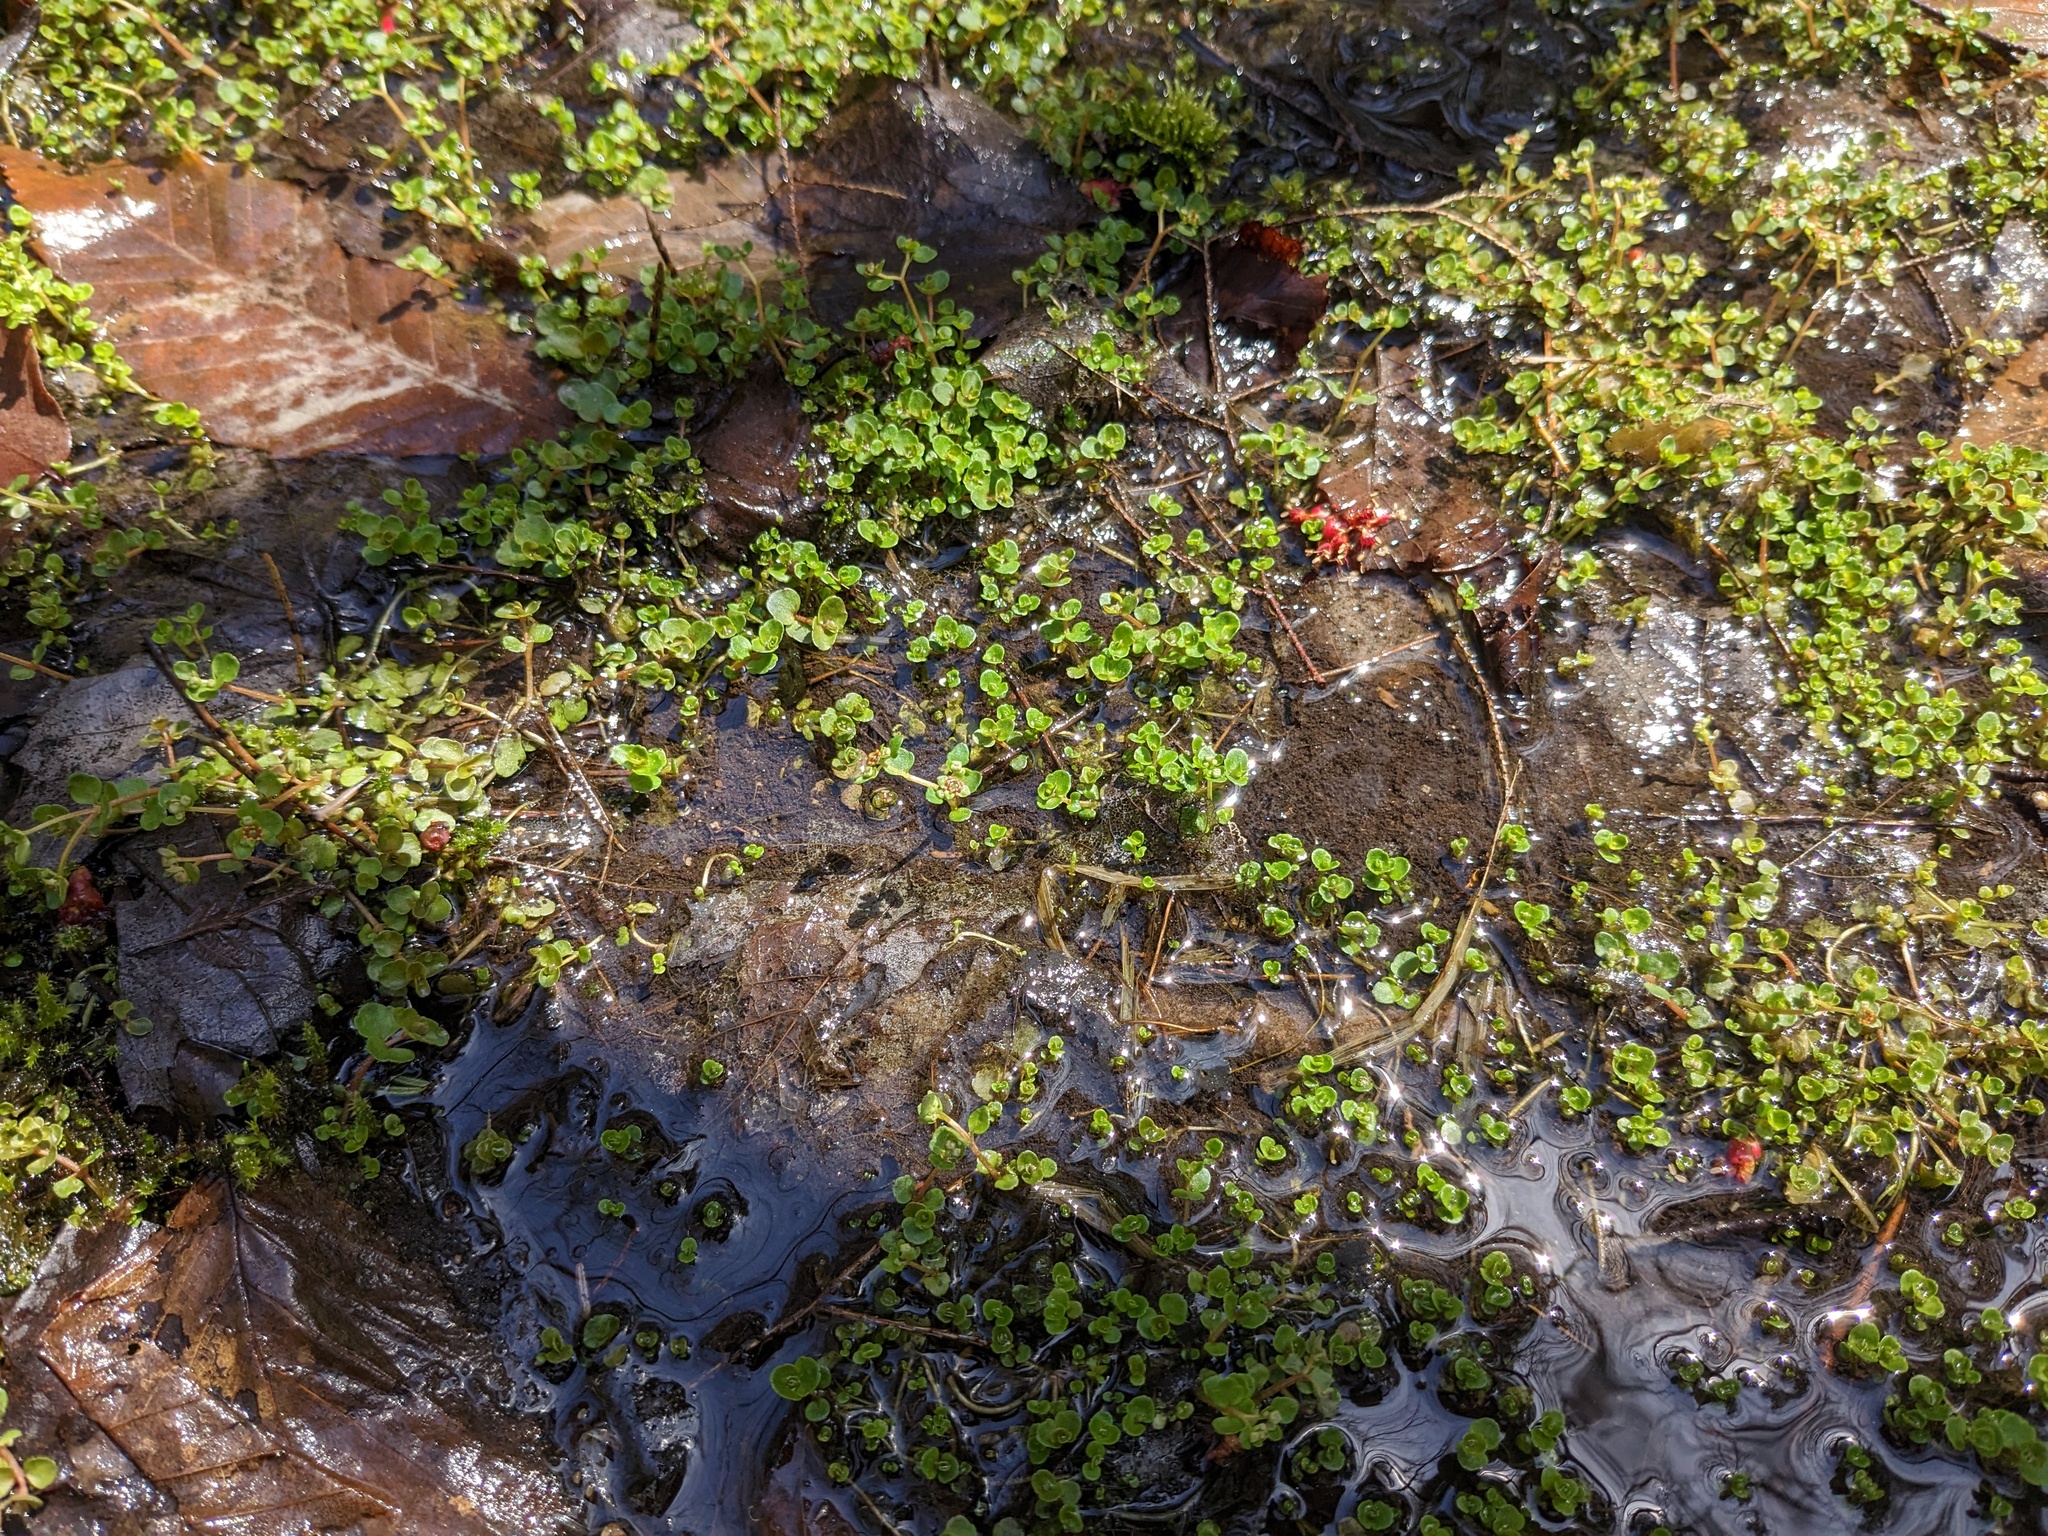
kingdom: Plantae
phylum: Tracheophyta
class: Magnoliopsida
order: Saxifragales
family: Saxifragaceae
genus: Chrysosplenium
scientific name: Chrysosplenium americanum
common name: American golden-saxifrage
